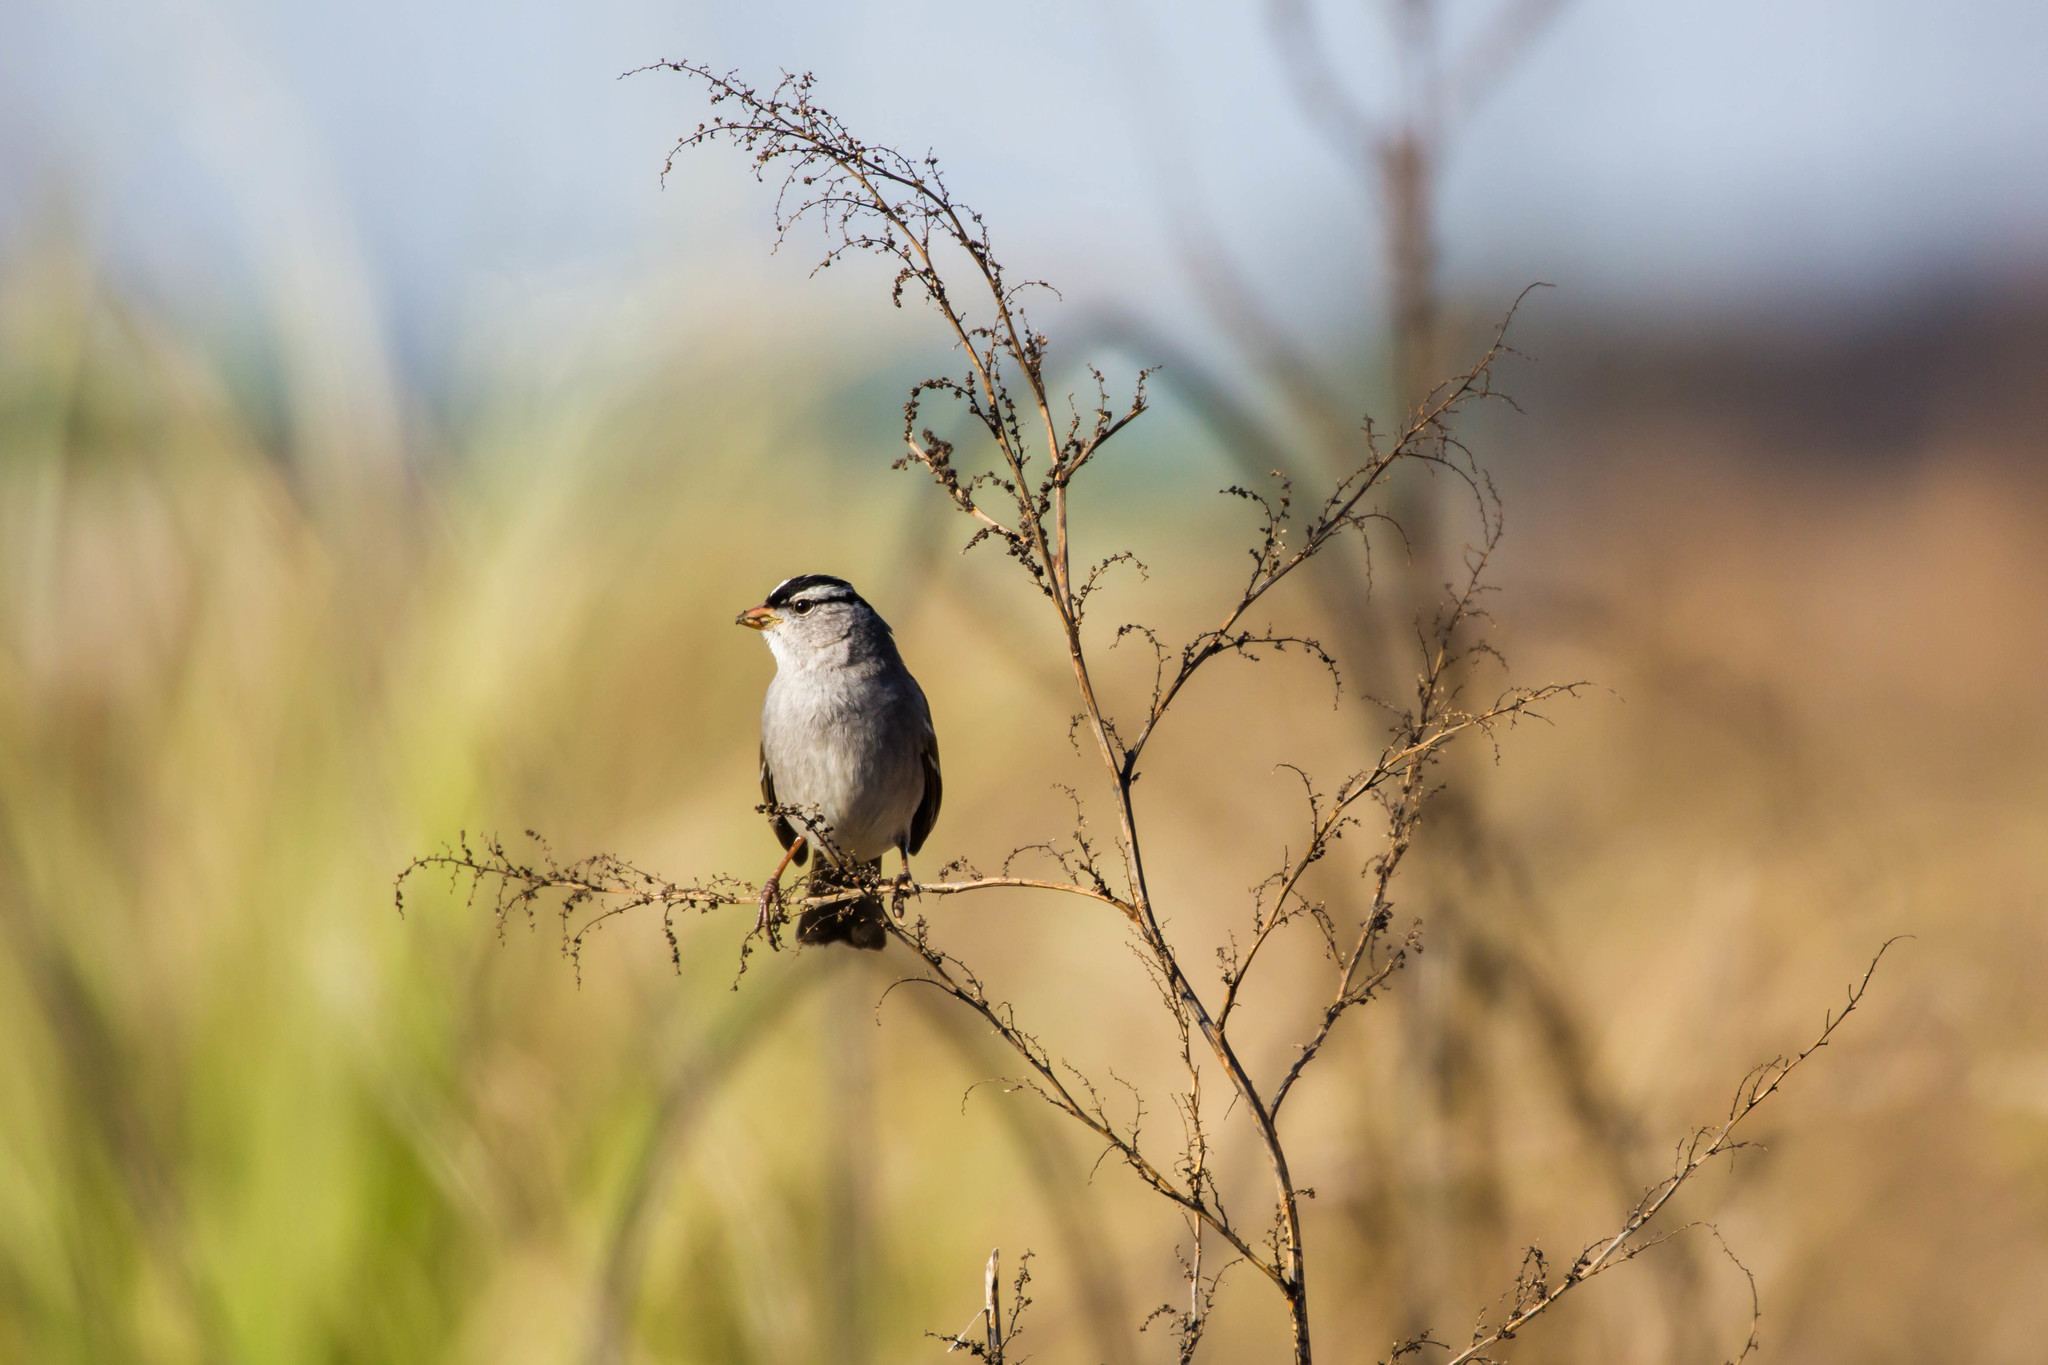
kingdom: Animalia
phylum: Chordata
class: Aves
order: Passeriformes
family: Passerellidae
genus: Zonotrichia
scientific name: Zonotrichia leucophrys
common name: White-crowned sparrow
